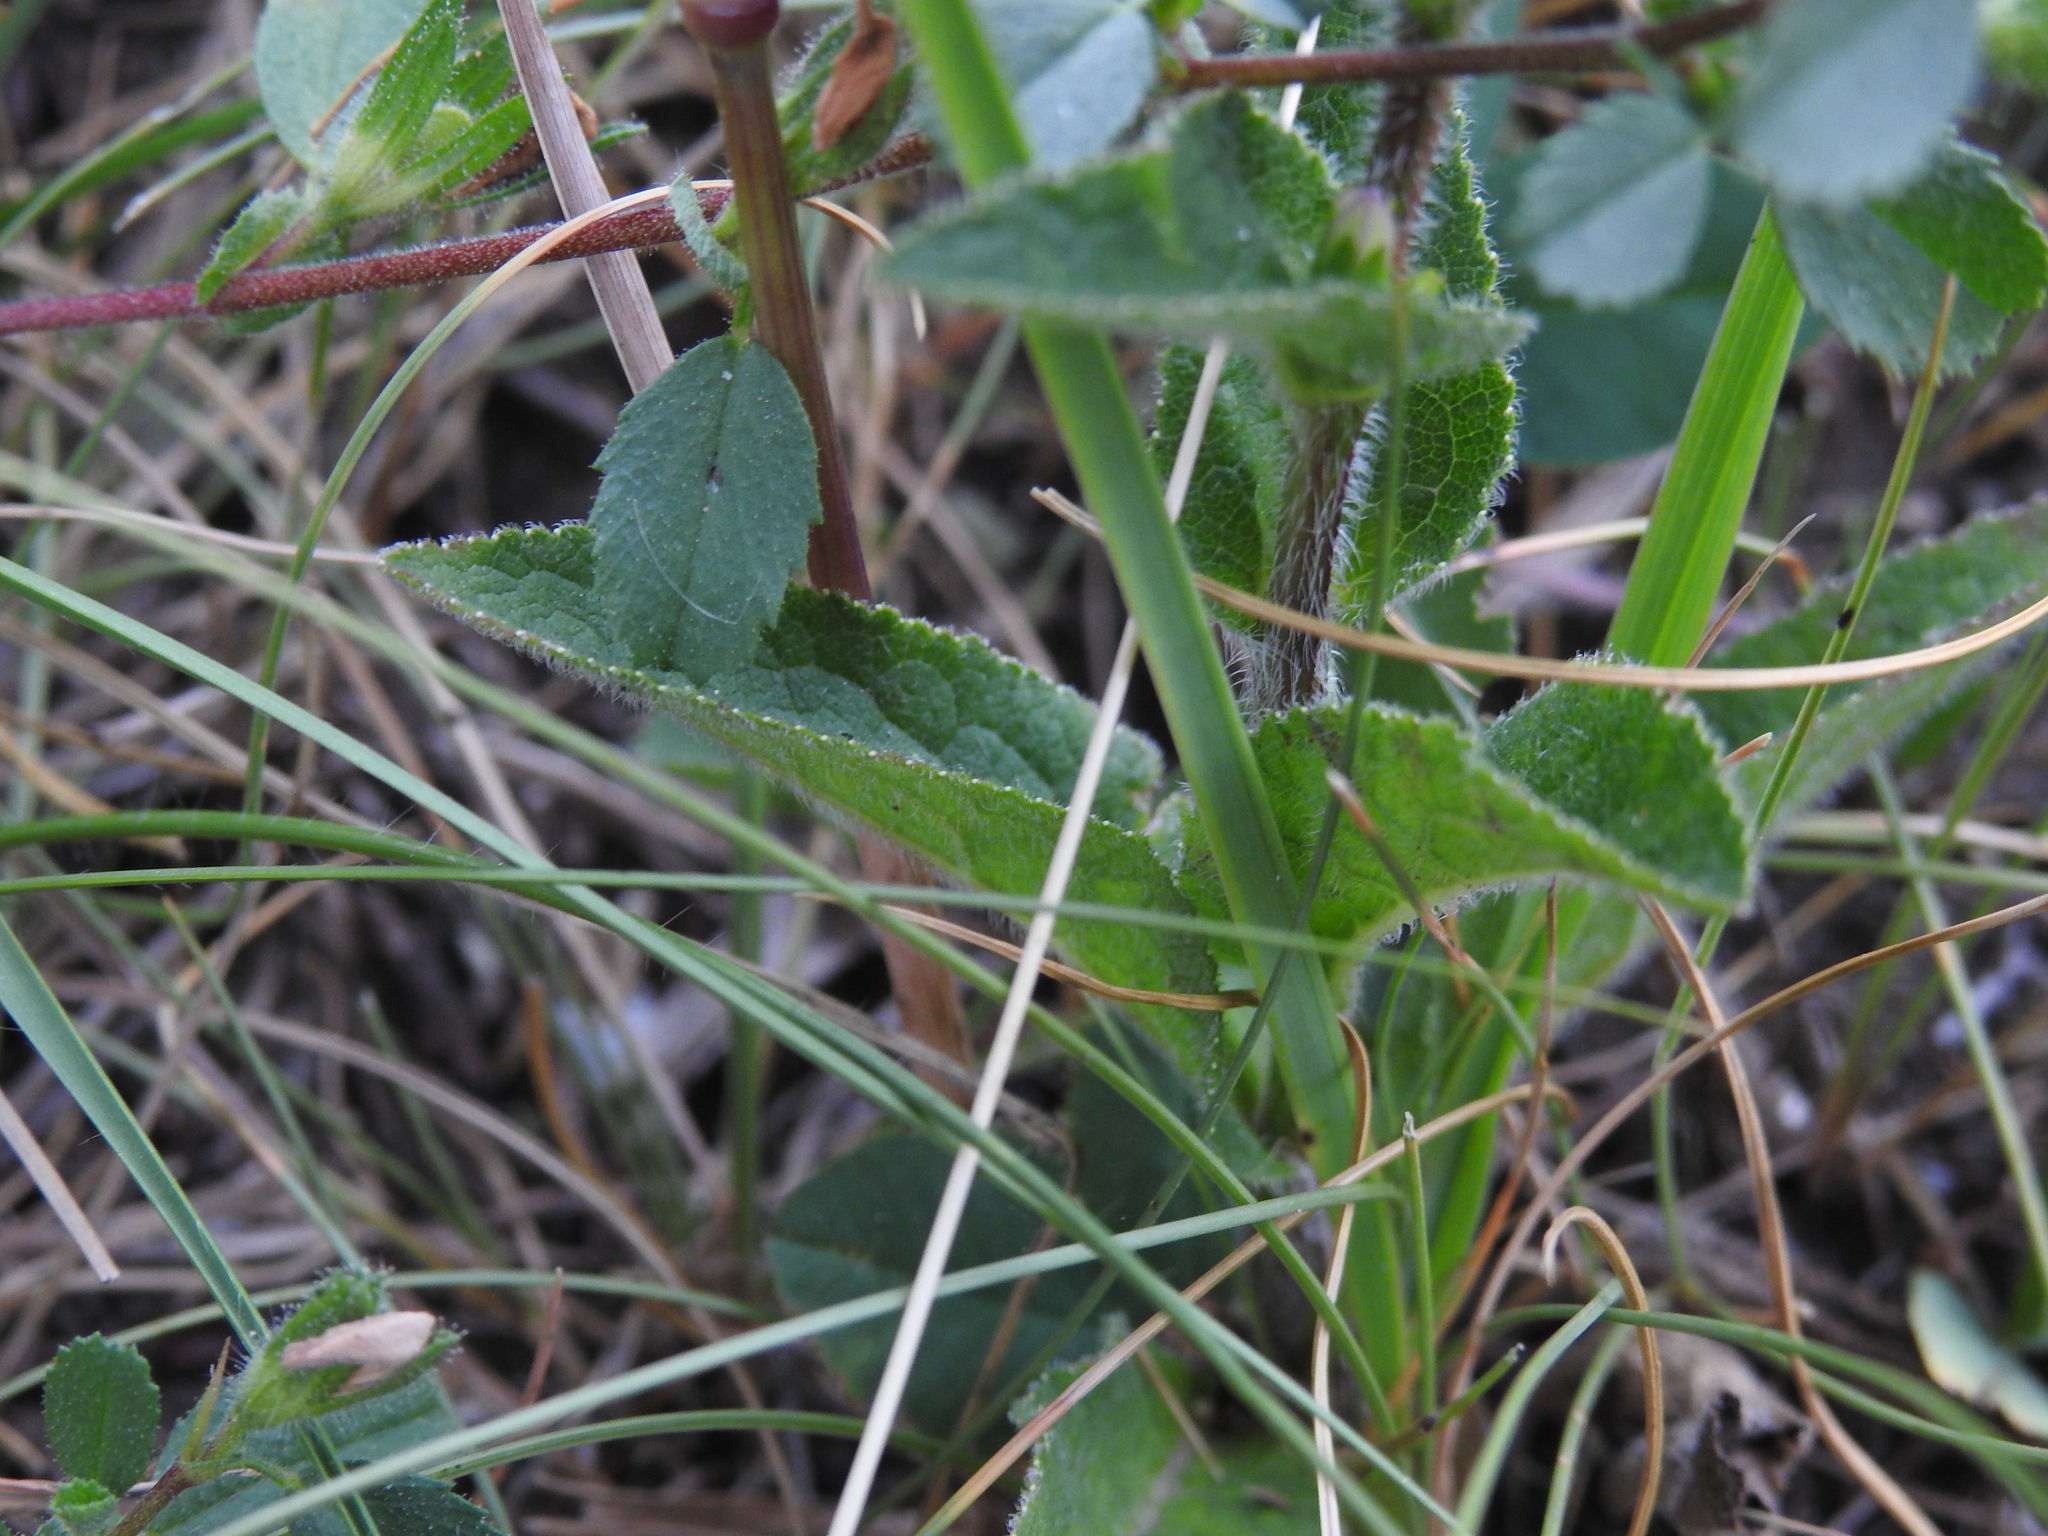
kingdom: Plantae
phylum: Tracheophyta
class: Magnoliopsida
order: Asterales
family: Campanulaceae
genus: Campanula
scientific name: Campanula glomerata
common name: Clustered bellflower
